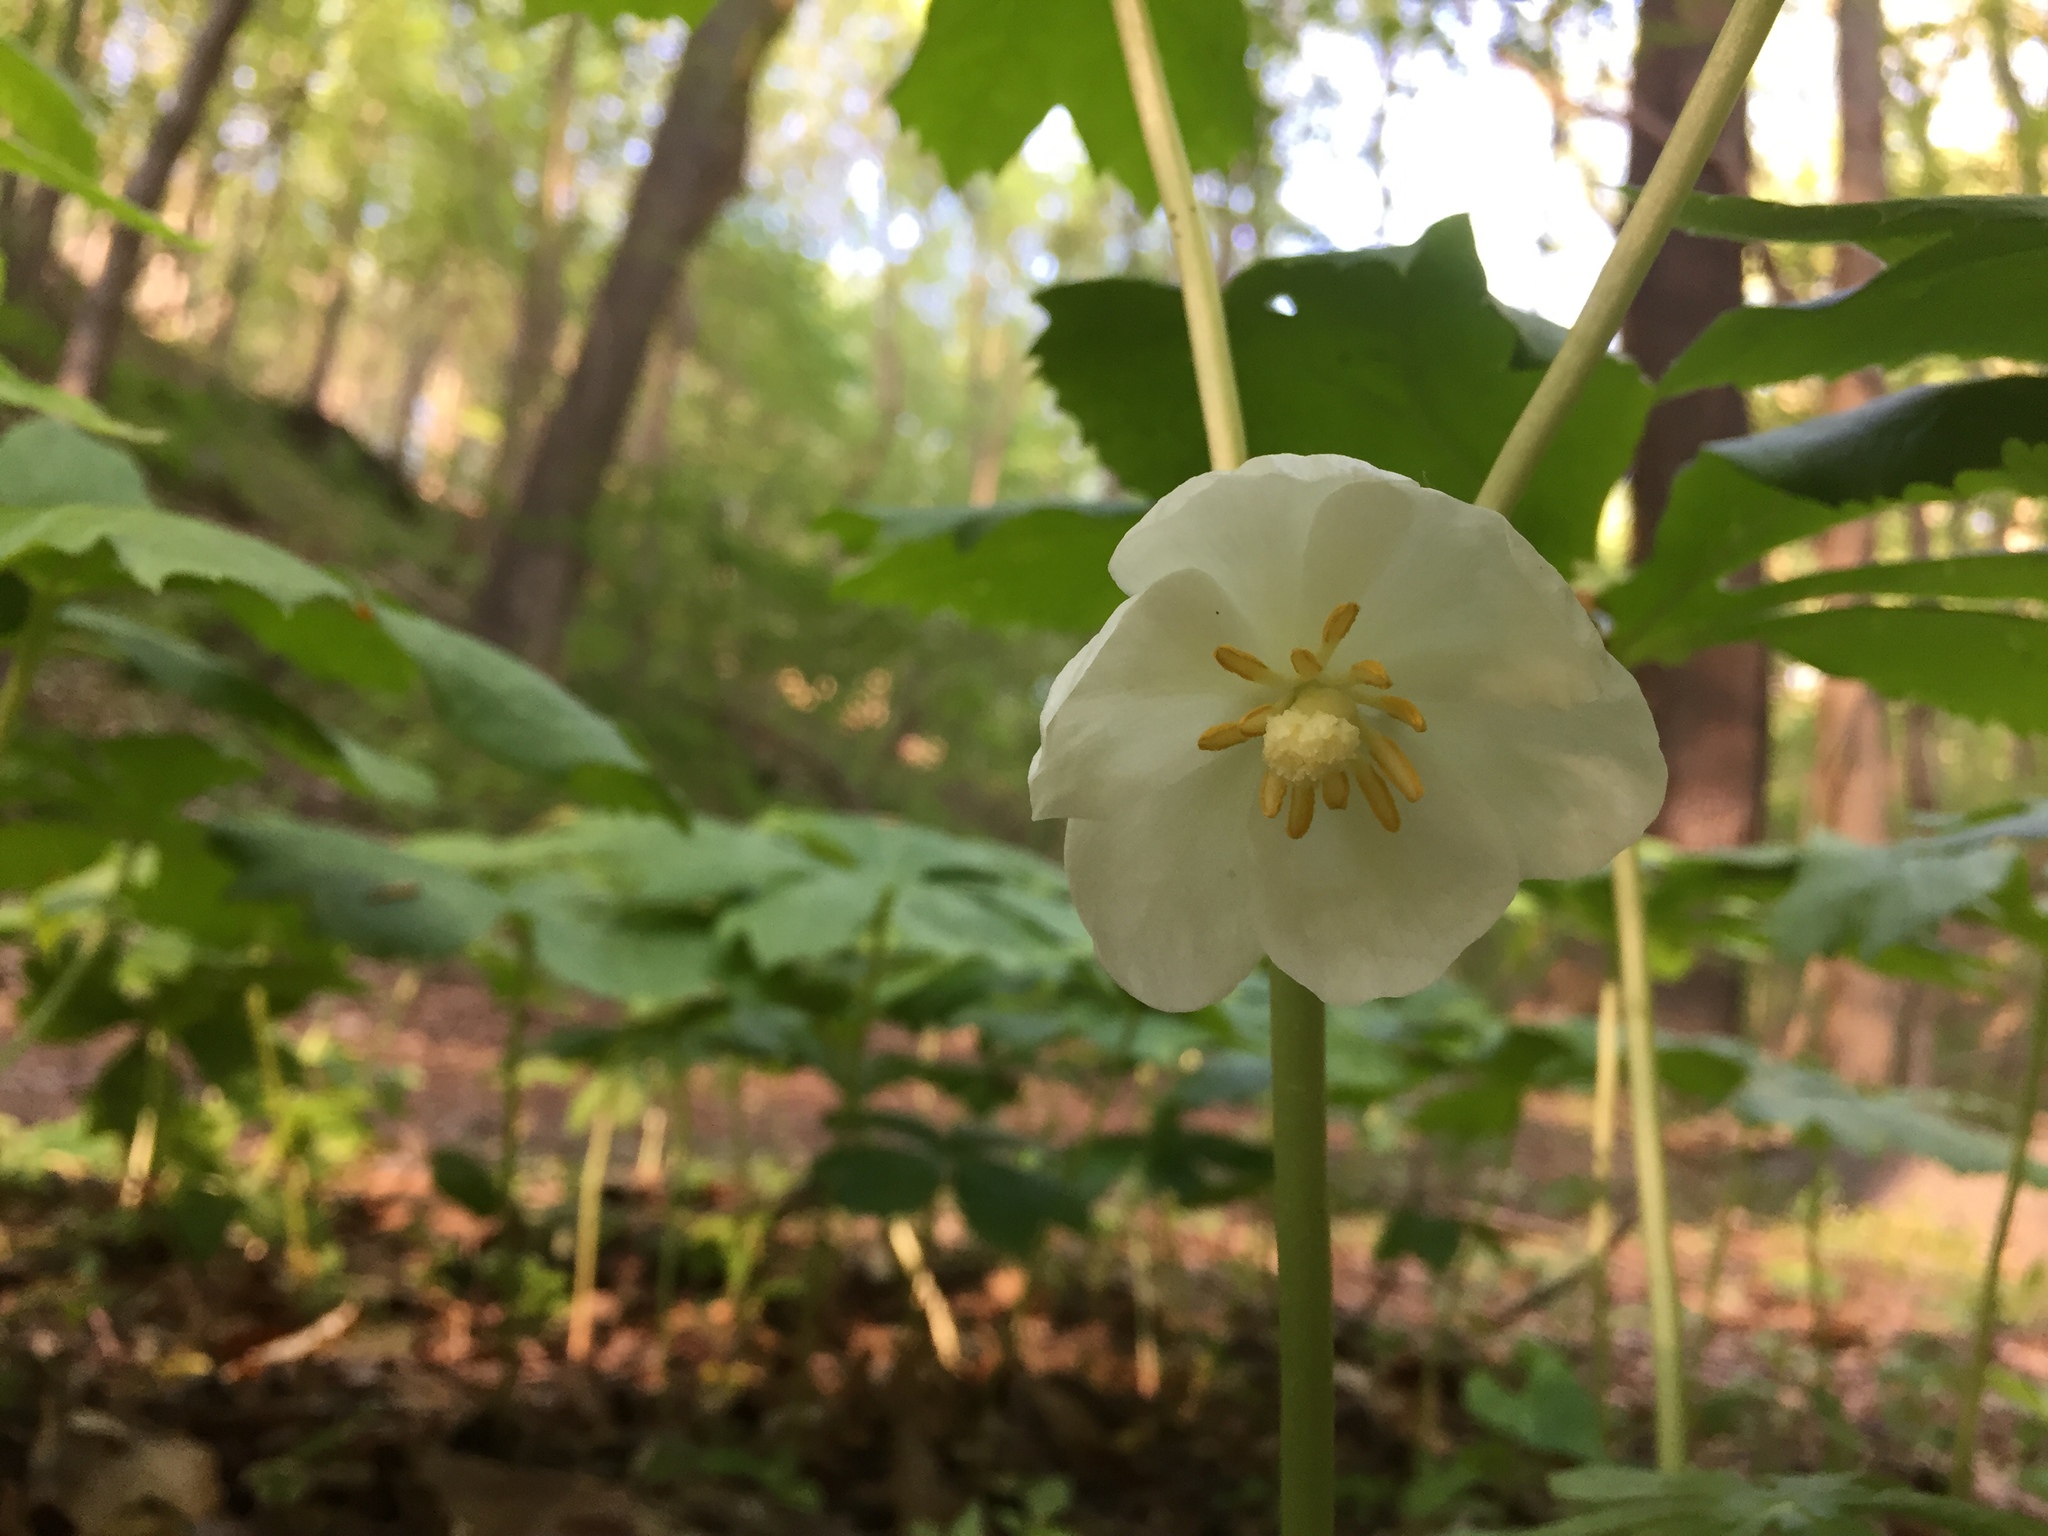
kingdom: Plantae
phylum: Tracheophyta
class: Magnoliopsida
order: Ranunculales
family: Berberidaceae
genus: Podophyllum
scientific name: Podophyllum peltatum
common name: Wild mandrake
